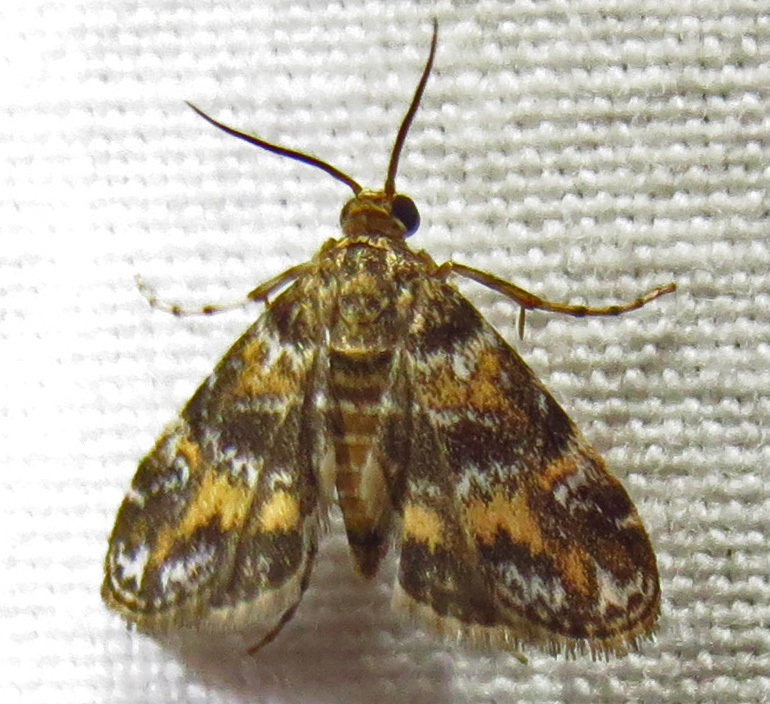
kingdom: Animalia
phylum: Arthropoda
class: Insecta
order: Lepidoptera
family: Crambidae
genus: Elophila
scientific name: Elophila obliteralis
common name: Waterlily leafcutter moth
